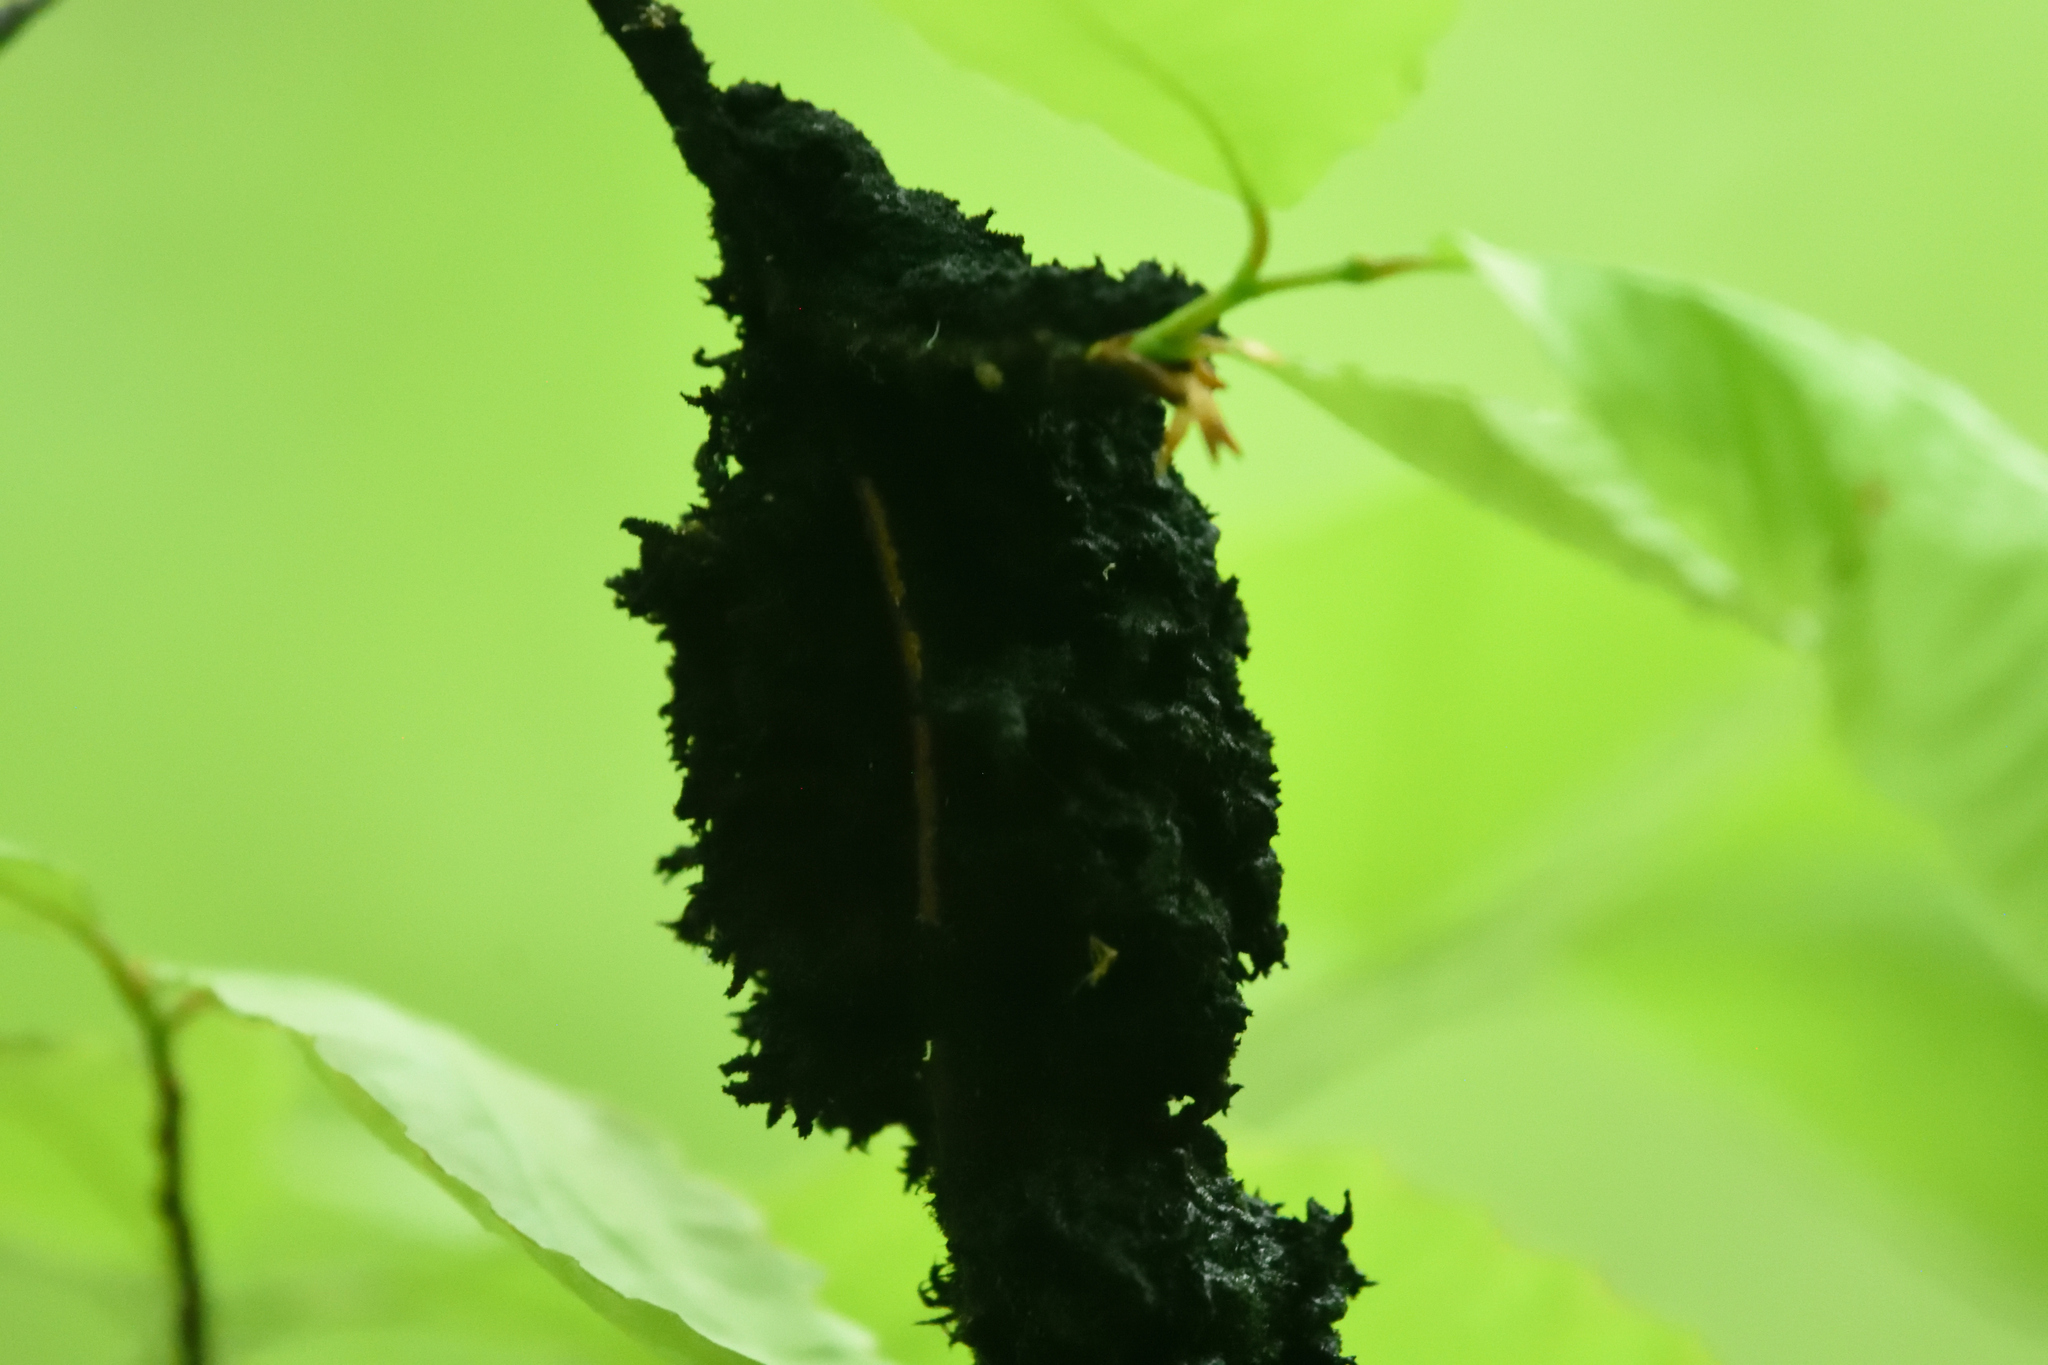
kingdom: Fungi
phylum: Ascomycota
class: Dothideomycetes
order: Capnodiales
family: Capnodiaceae
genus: Scorias
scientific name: Scorias spongiosa
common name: Black sooty mold
